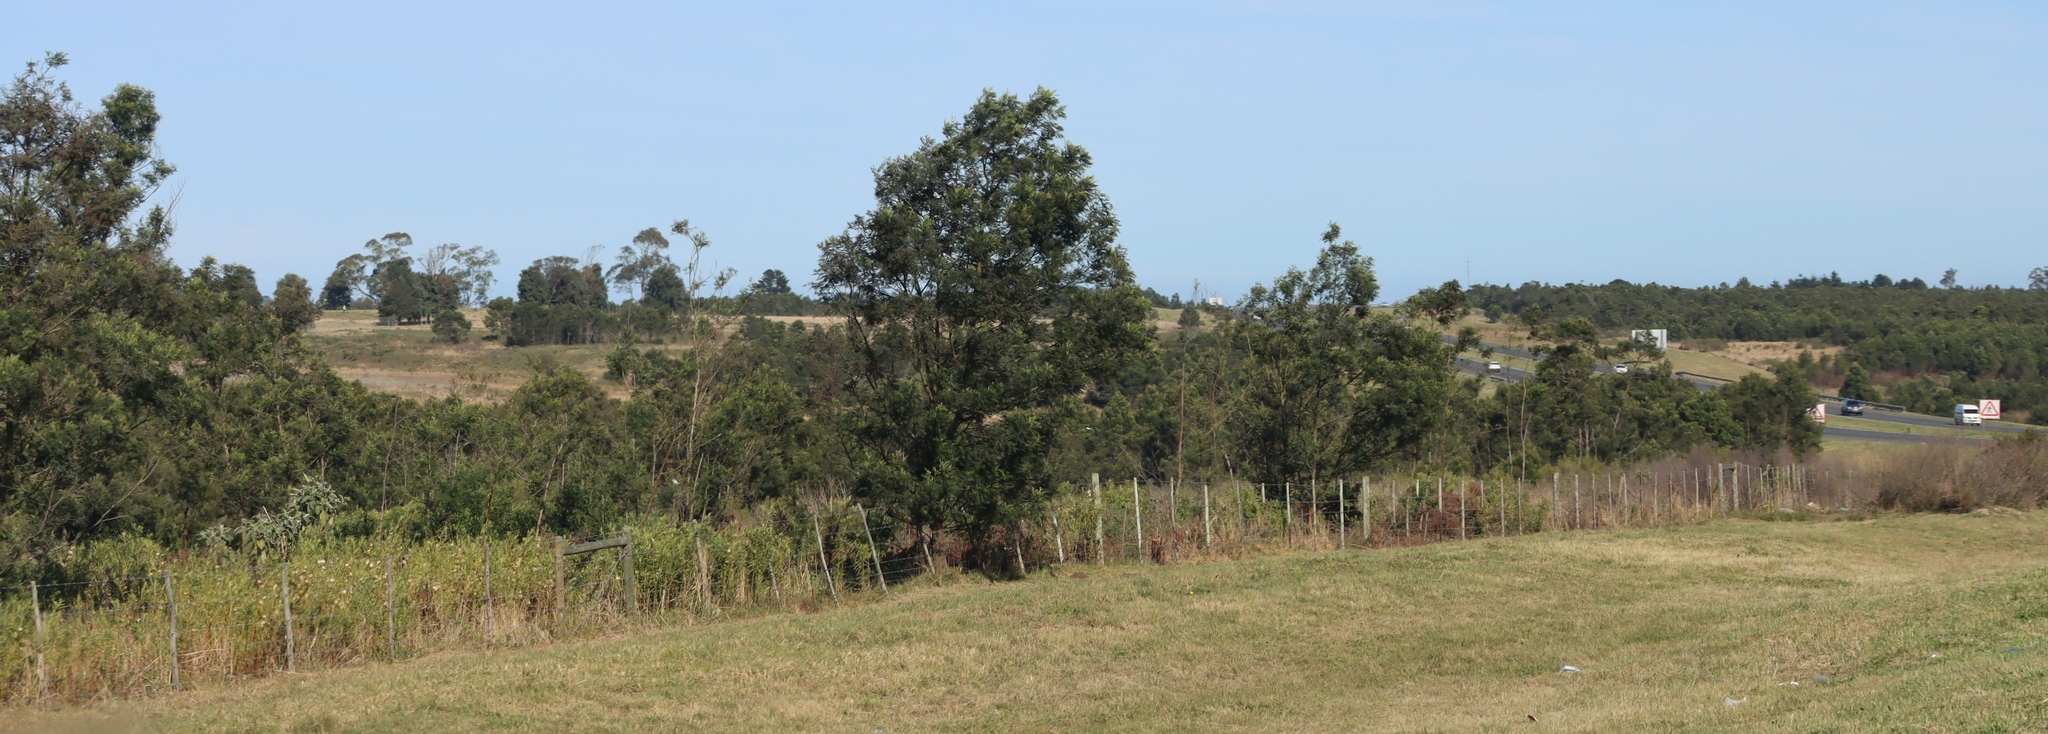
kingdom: Plantae
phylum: Tracheophyta
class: Magnoliopsida
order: Fabales
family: Fabaceae
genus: Acacia
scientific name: Acacia mearnsii
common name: Black wattle
